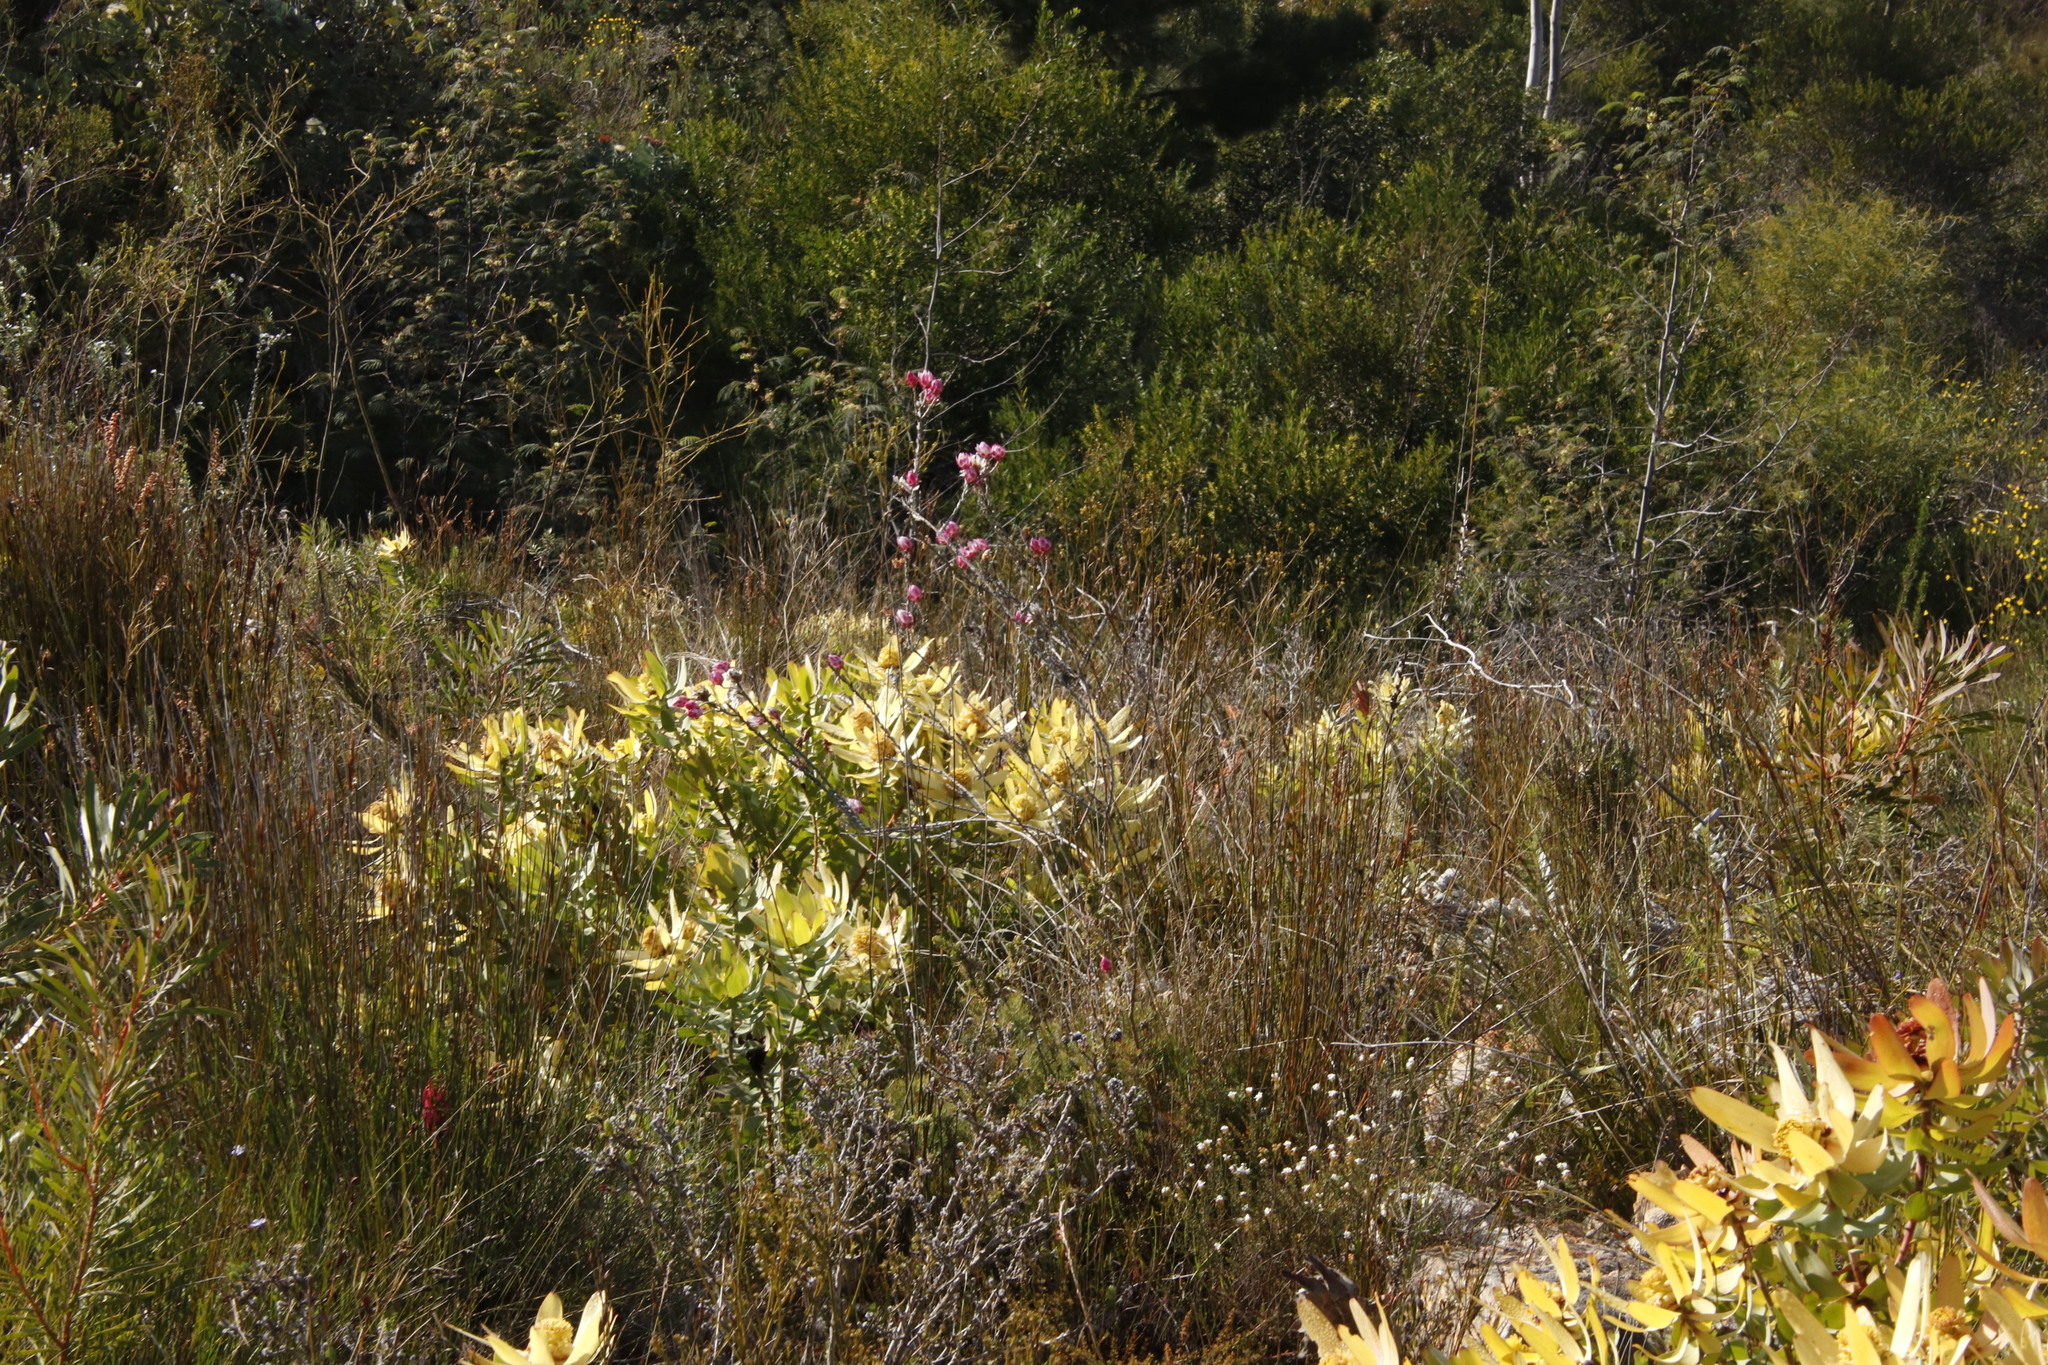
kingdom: Plantae
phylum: Tracheophyta
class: Magnoliopsida
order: Proteales
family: Proteaceae
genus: Leucadendron
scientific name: Leucadendron tinctum
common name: Spicy conebush
